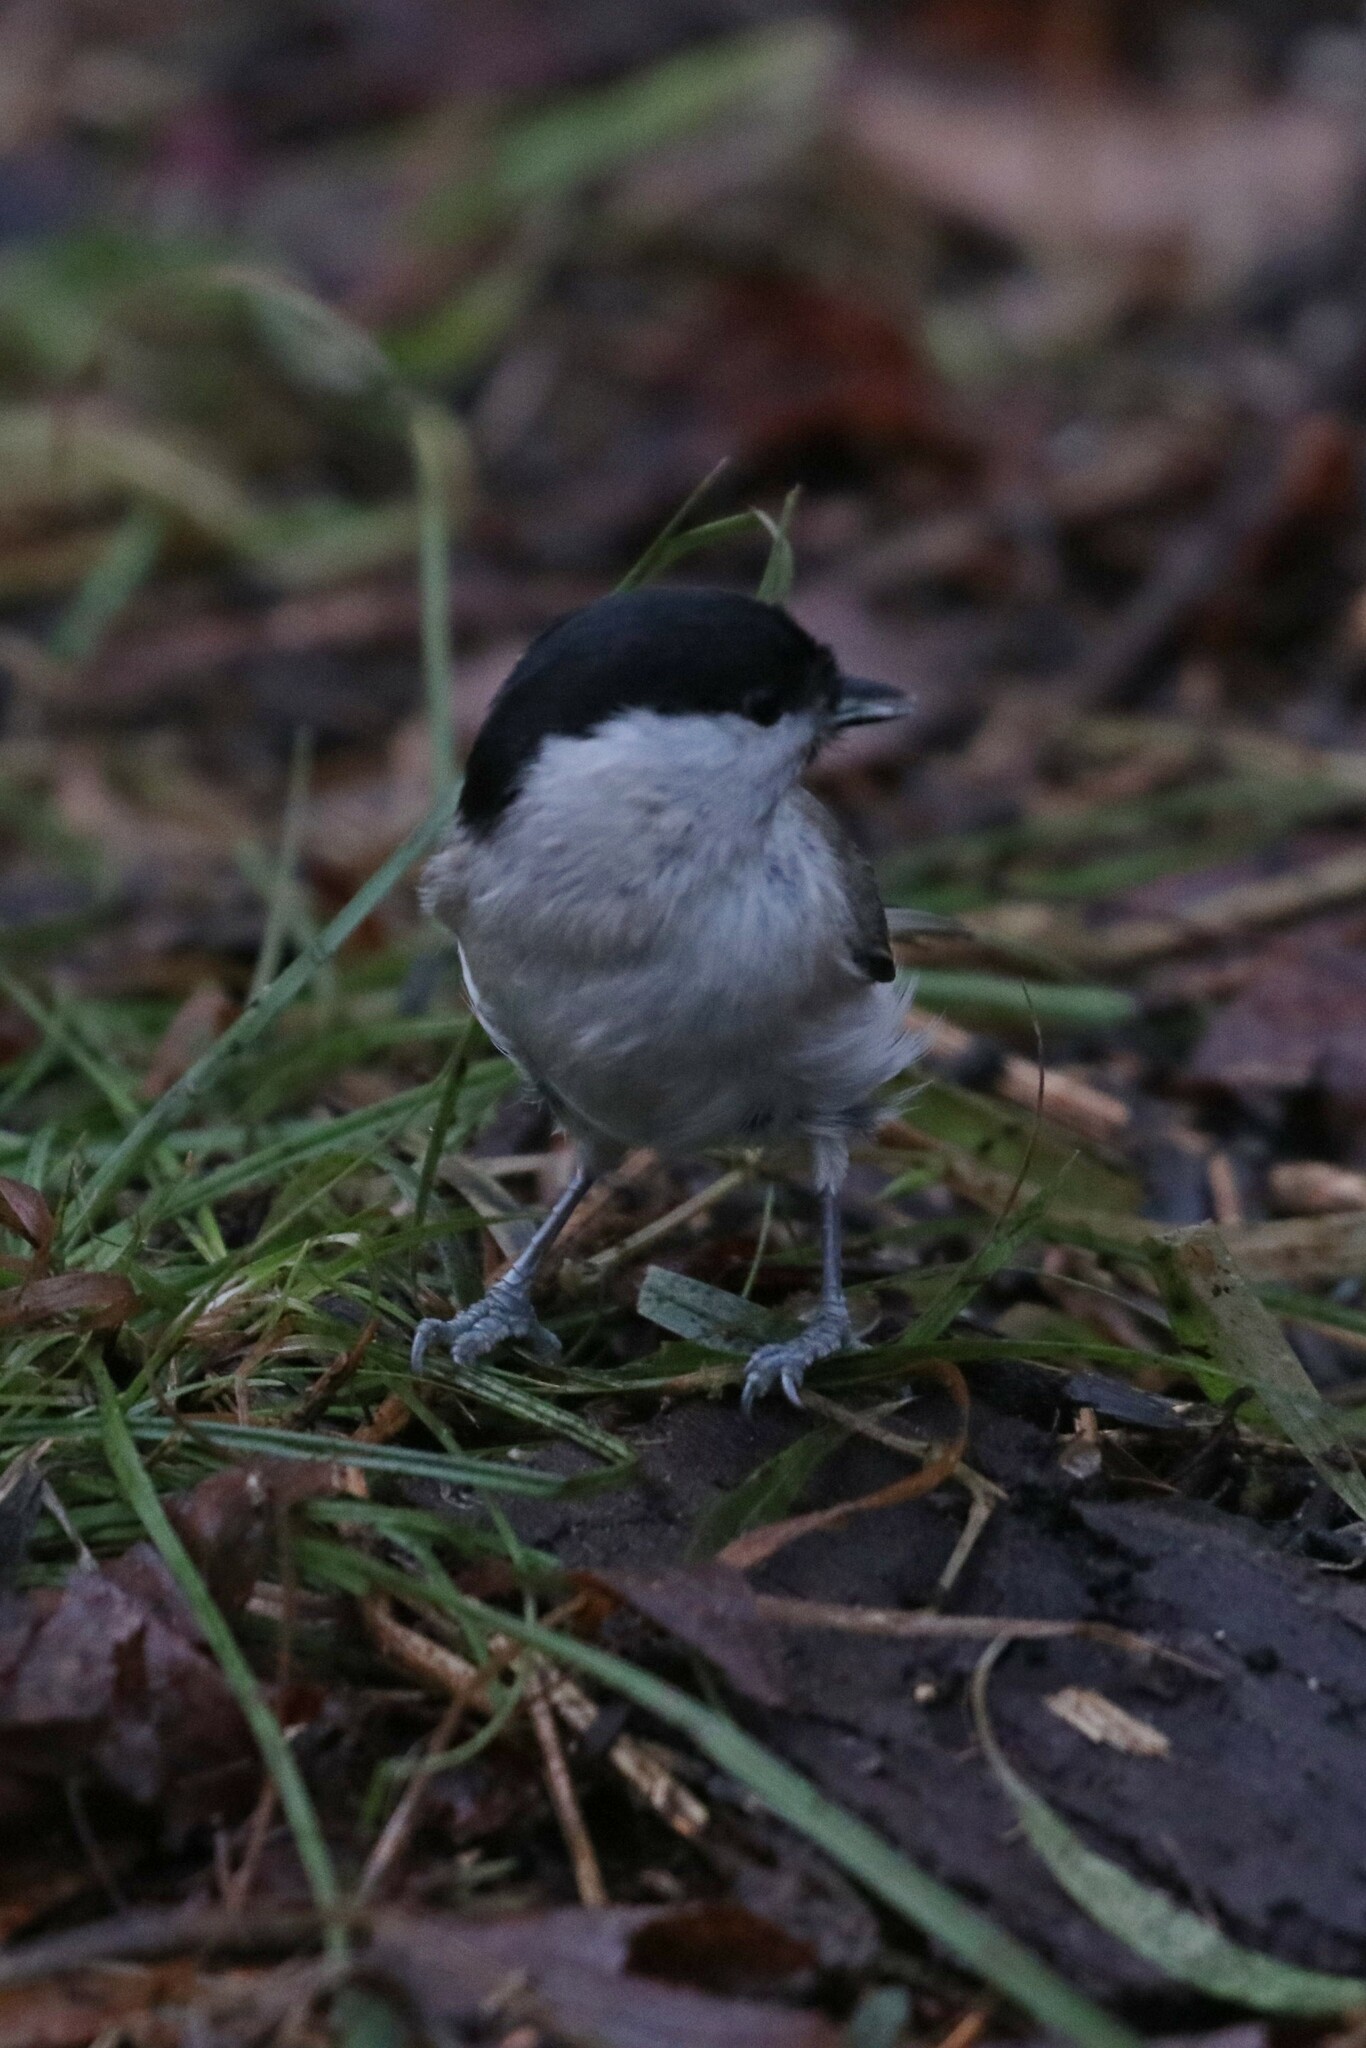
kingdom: Animalia
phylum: Chordata
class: Aves
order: Passeriformes
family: Paridae
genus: Poecile
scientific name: Poecile palustris
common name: Marsh tit
